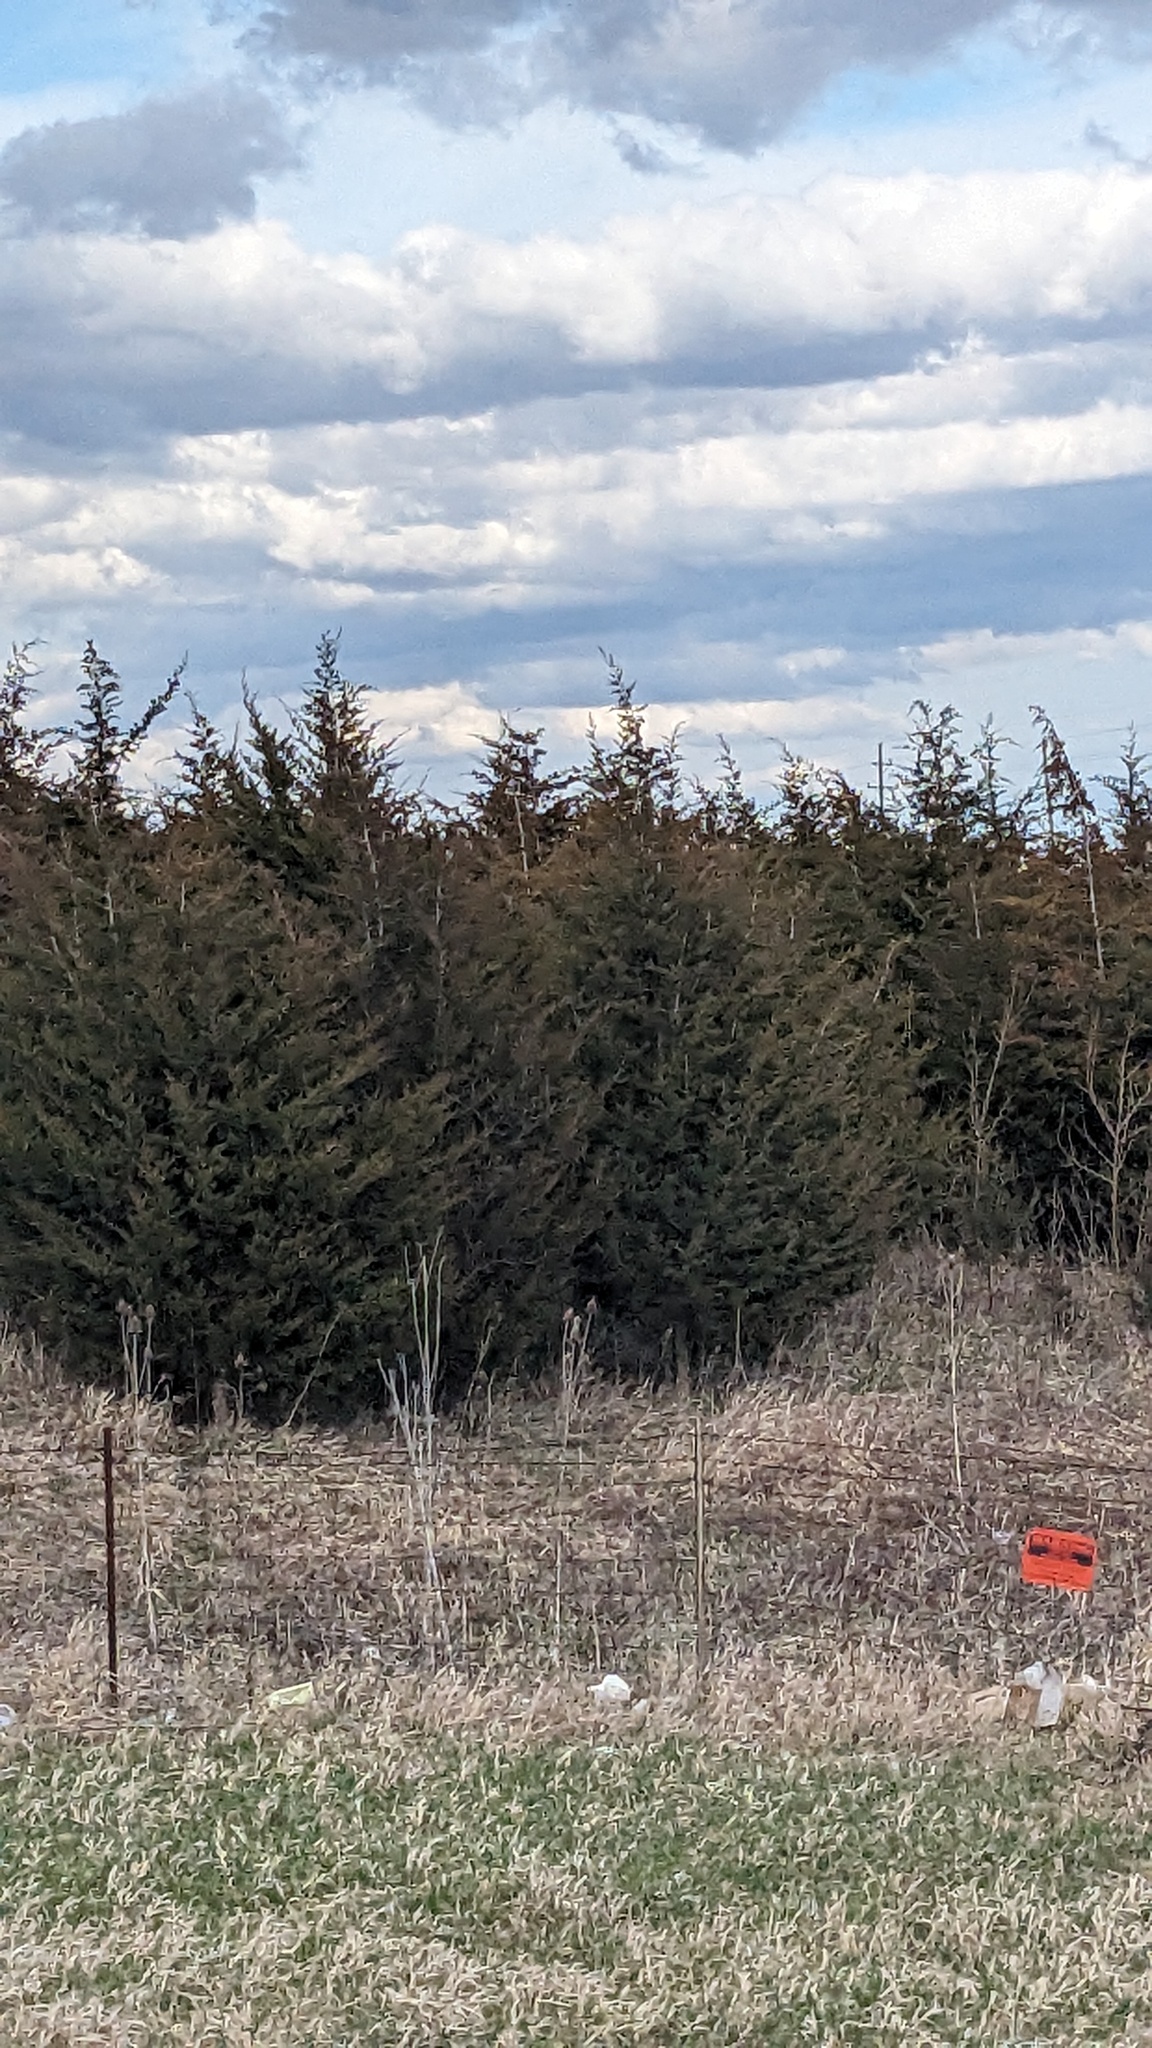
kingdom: Plantae
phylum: Tracheophyta
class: Pinopsida
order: Pinales
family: Cupressaceae
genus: Juniperus
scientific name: Juniperus virginiana
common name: Red juniper
